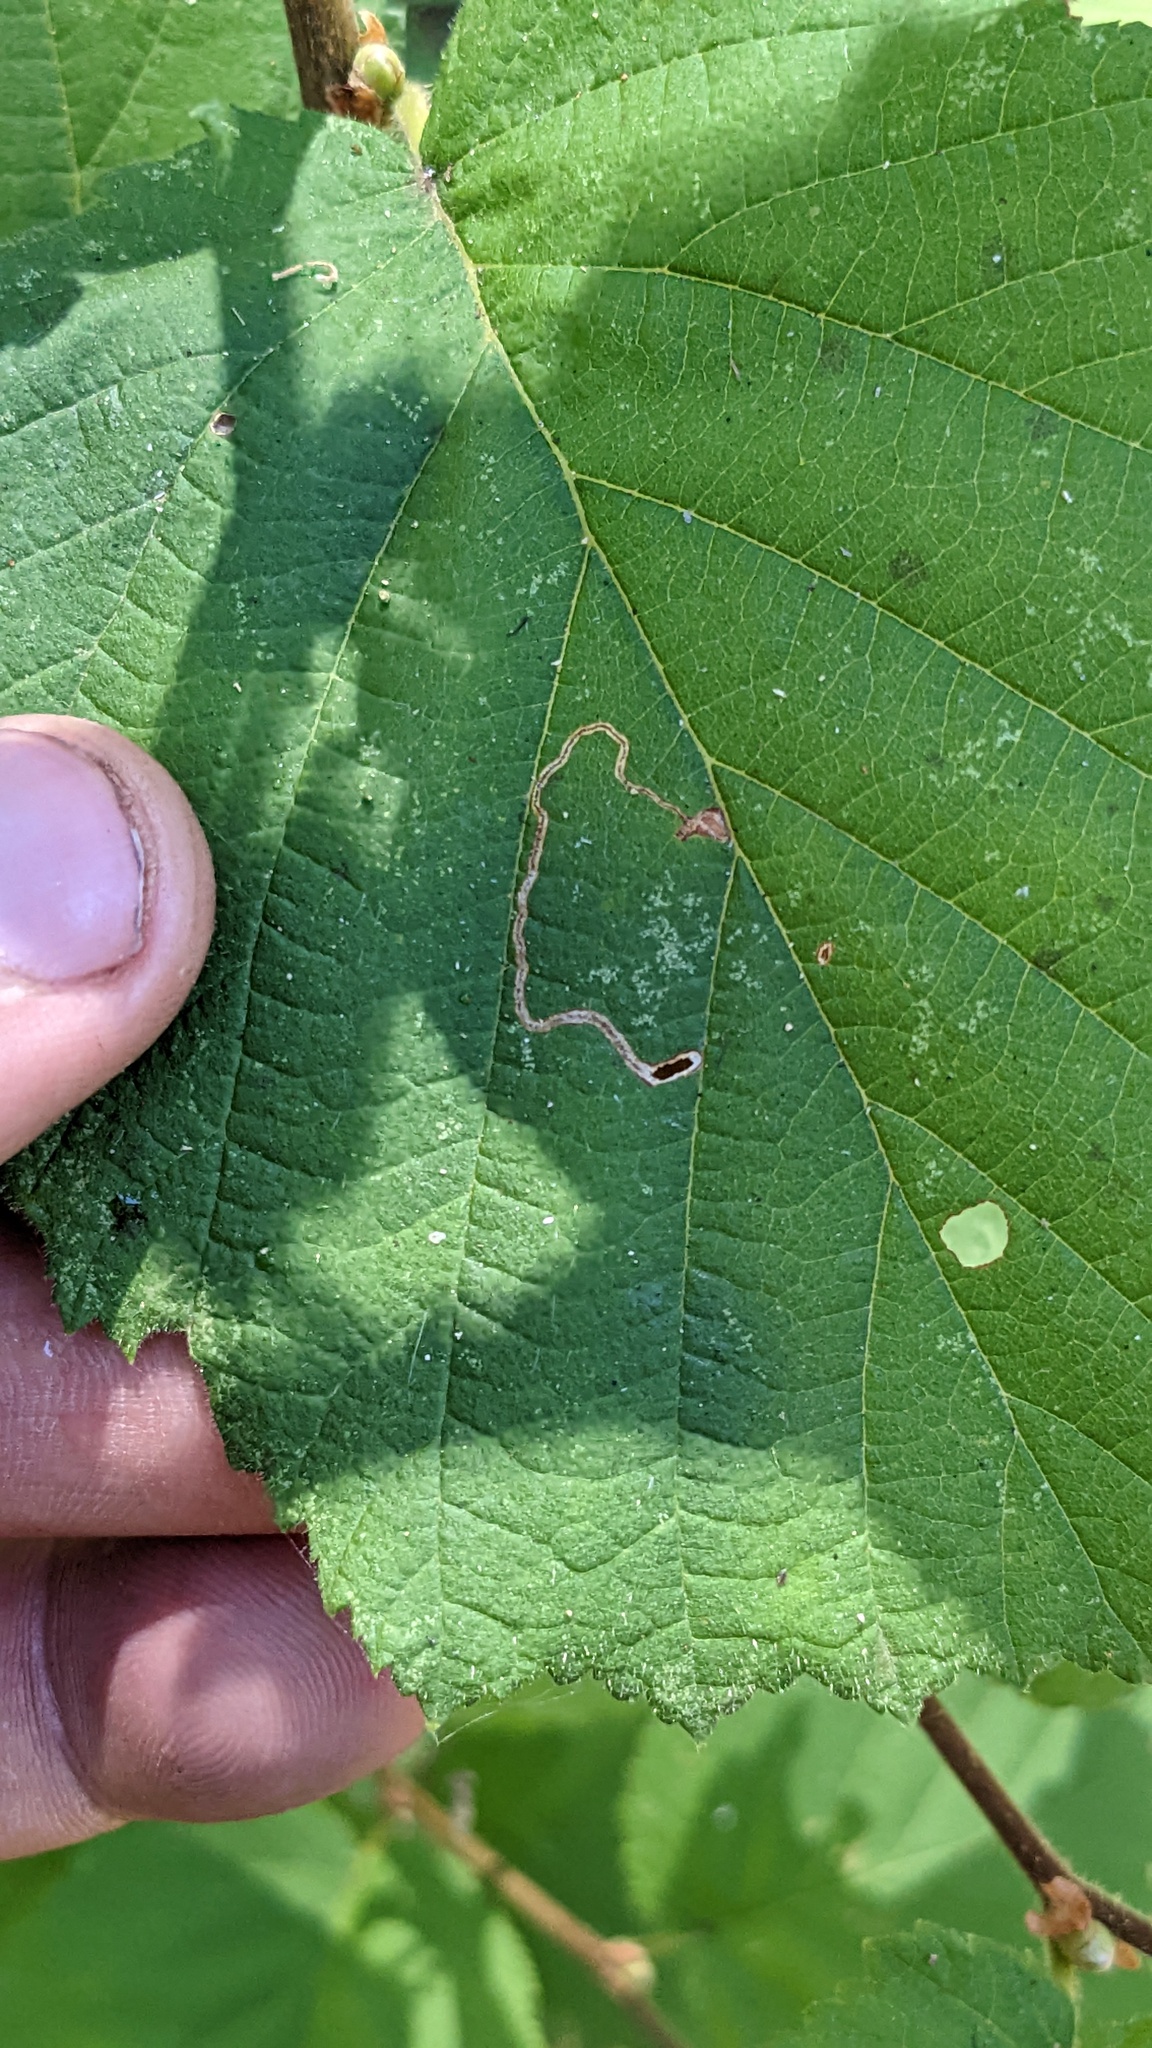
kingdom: Animalia
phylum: Arthropoda
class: Insecta
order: Lepidoptera
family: Nepticulidae
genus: Stigmella
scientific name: Stigmella microtheriella
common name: Nut-tree pigmy
